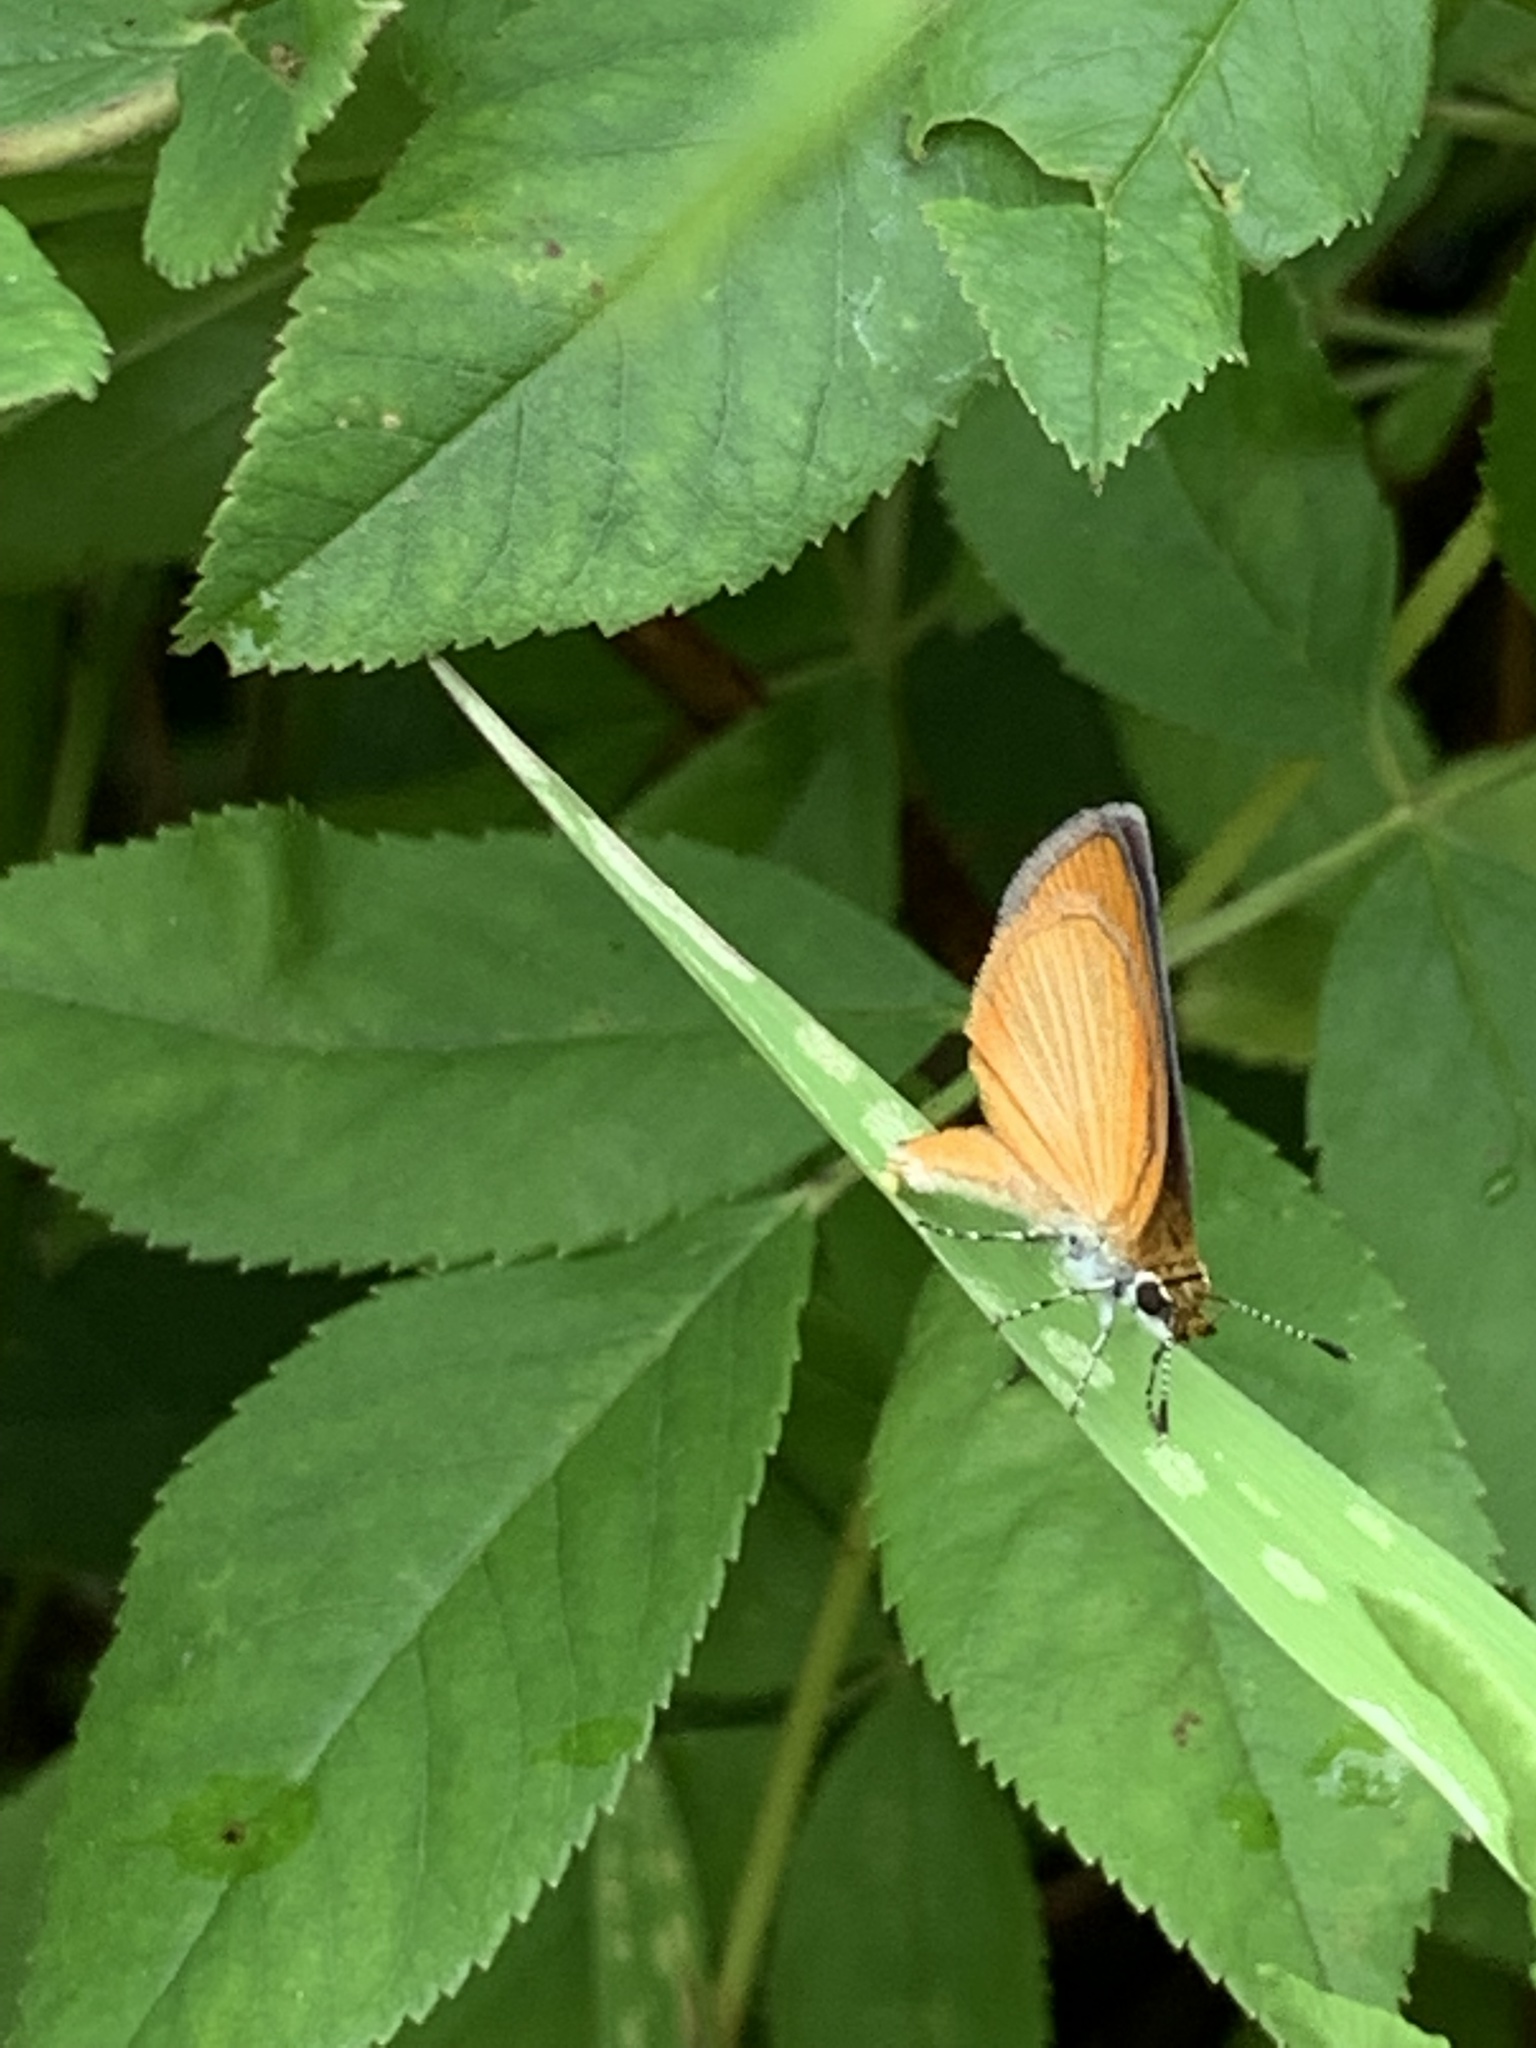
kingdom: Animalia
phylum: Arthropoda
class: Insecta
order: Lepidoptera
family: Hesperiidae
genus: Ancyloxypha
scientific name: Ancyloxypha numitor
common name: Least skipper
